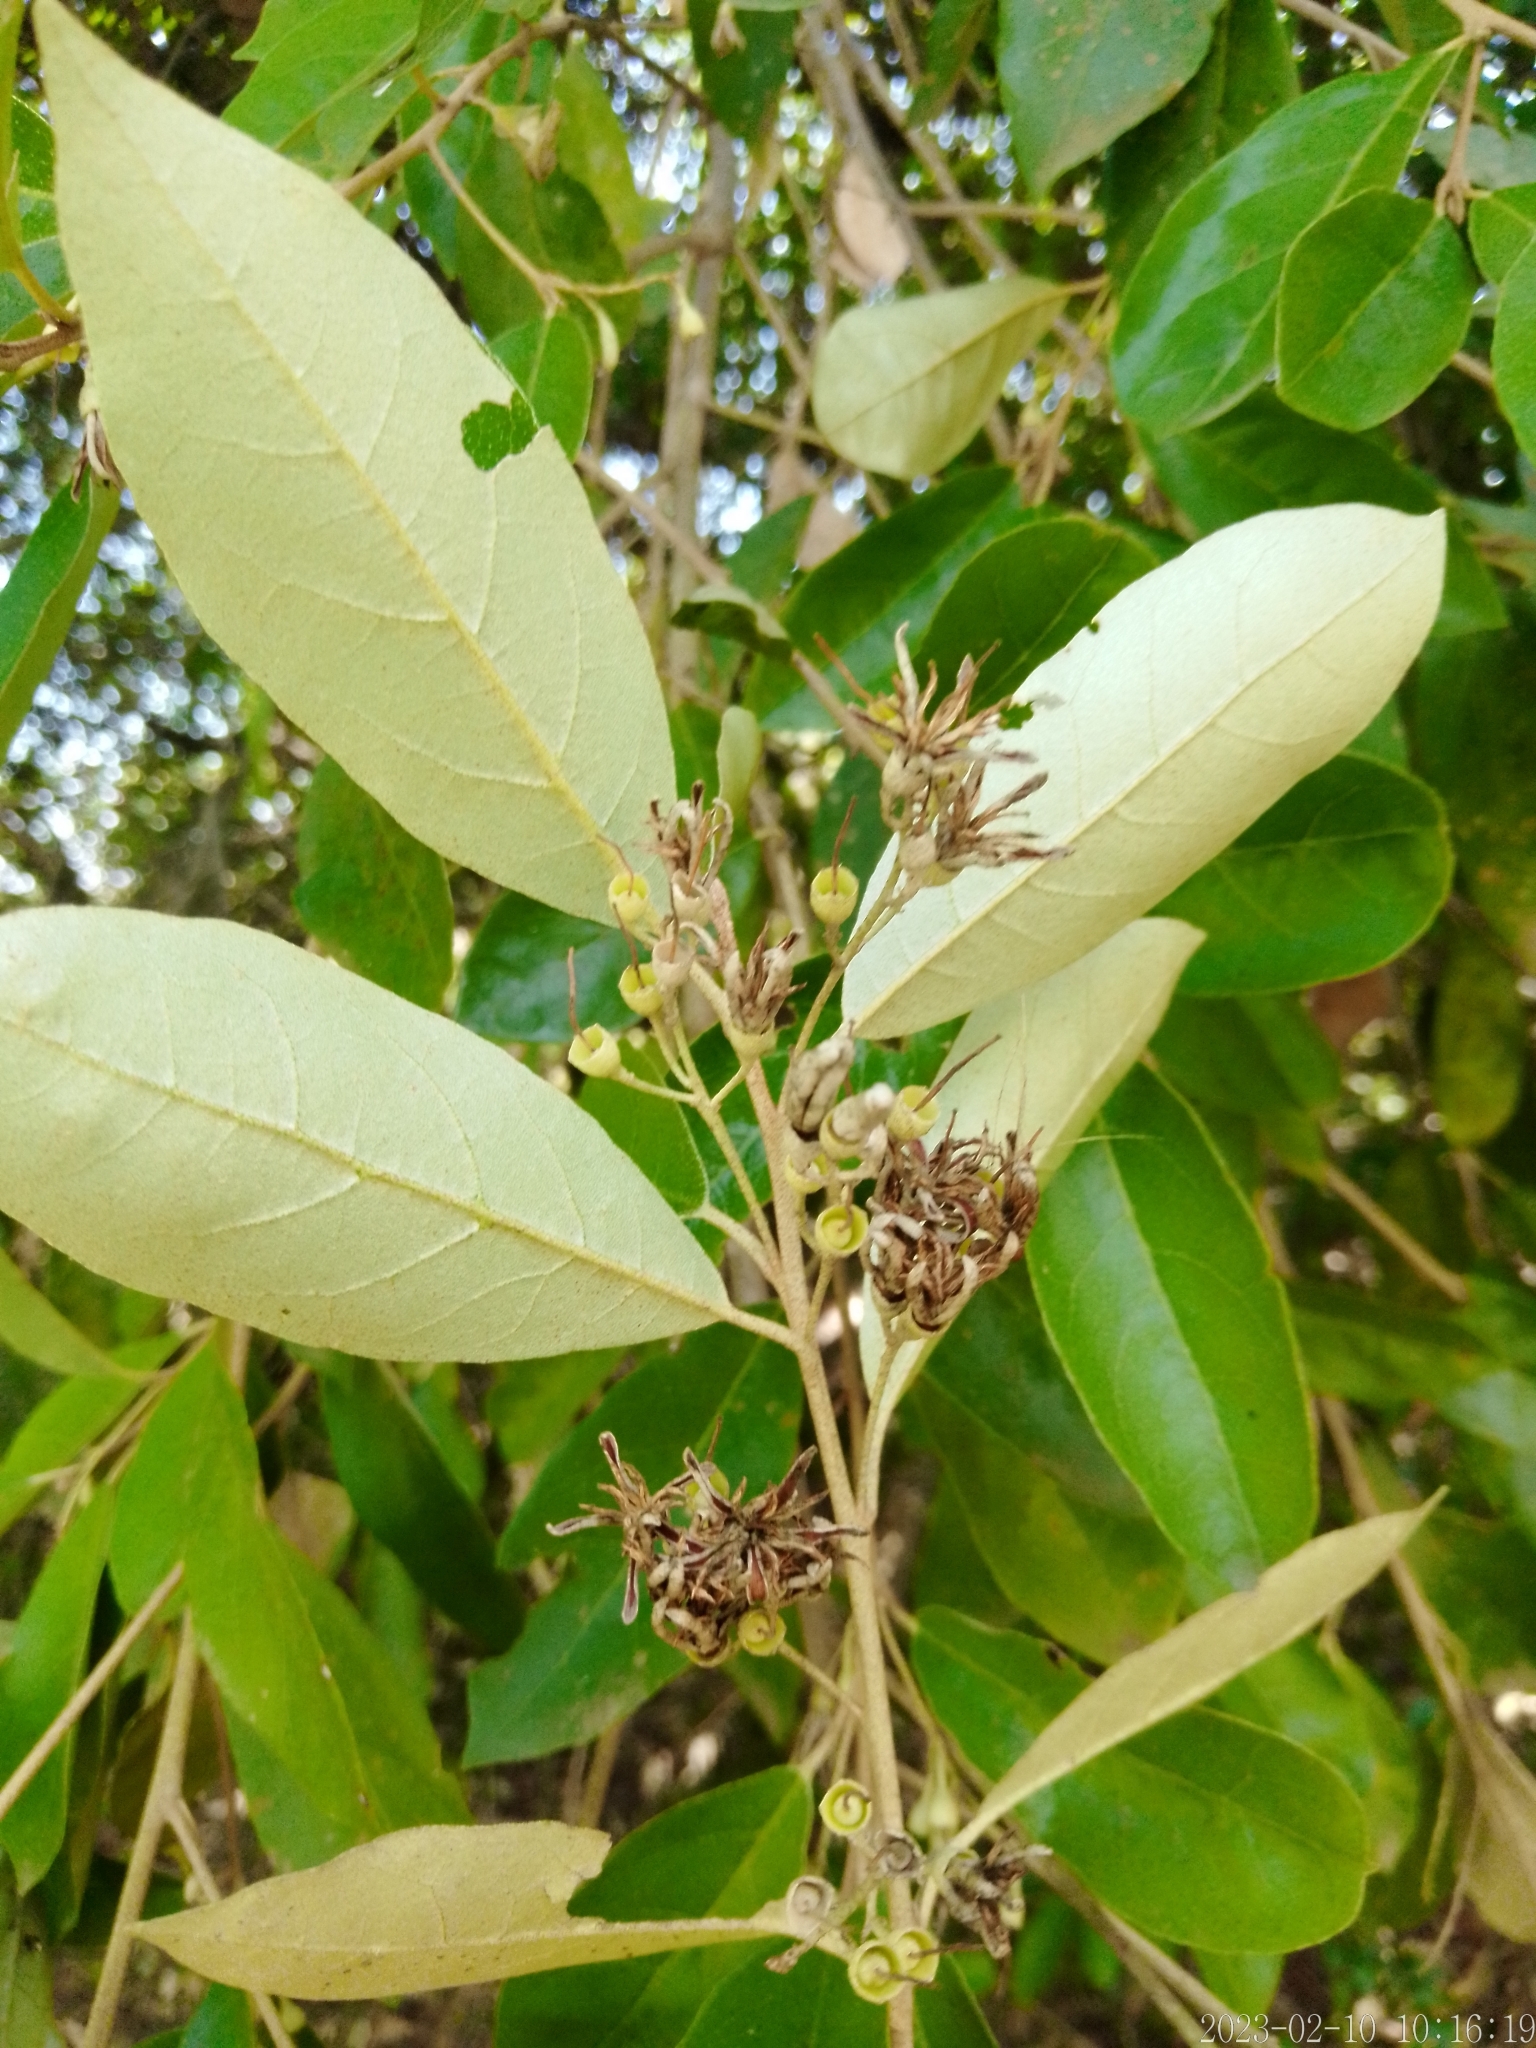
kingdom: Plantae
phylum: Tracheophyta
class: Magnoliopsida
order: Ericales
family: Styracaceae
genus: Styrax
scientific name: Styrax leprosus
